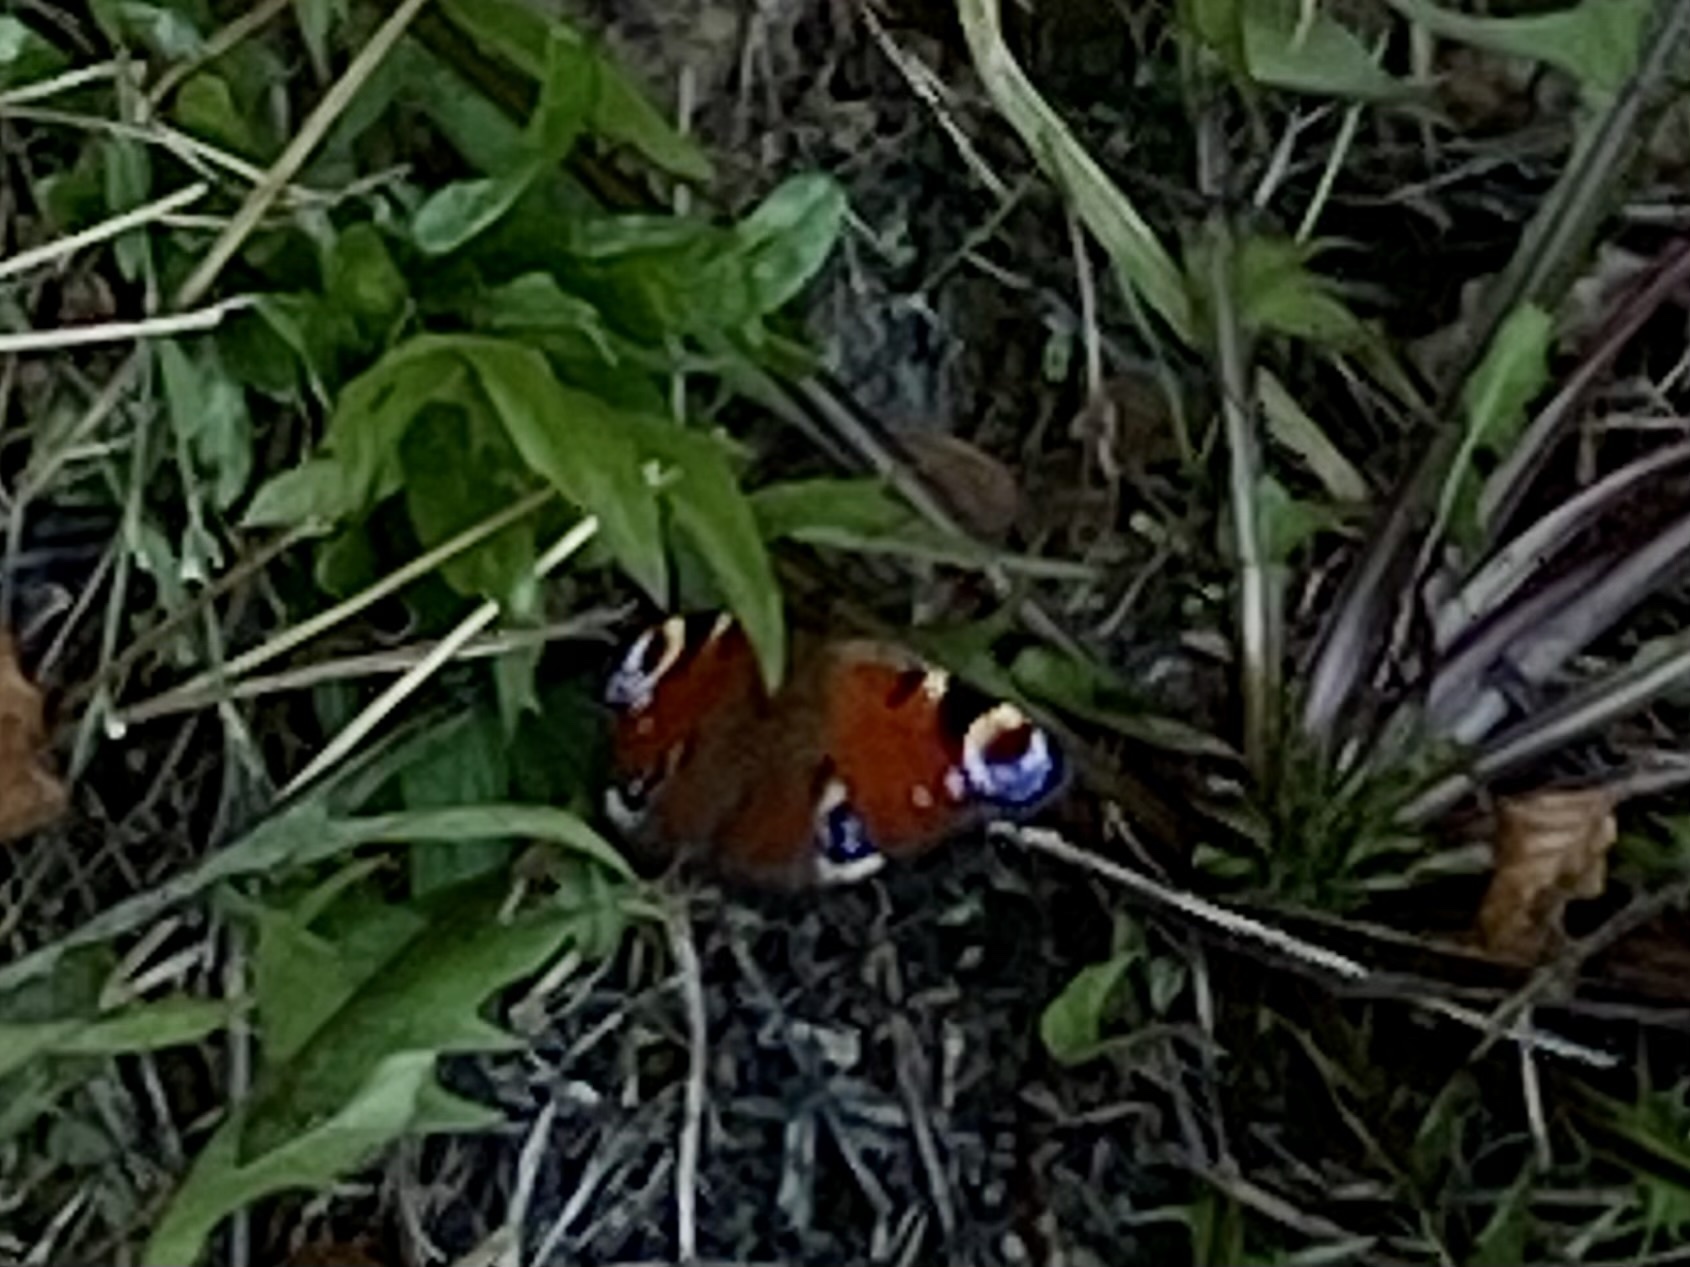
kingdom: Animalia
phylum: Arthropoda
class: Insecta
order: Lepidoptera
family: Nymphalidae
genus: Aglais
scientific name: Aglais io
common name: Peacock
